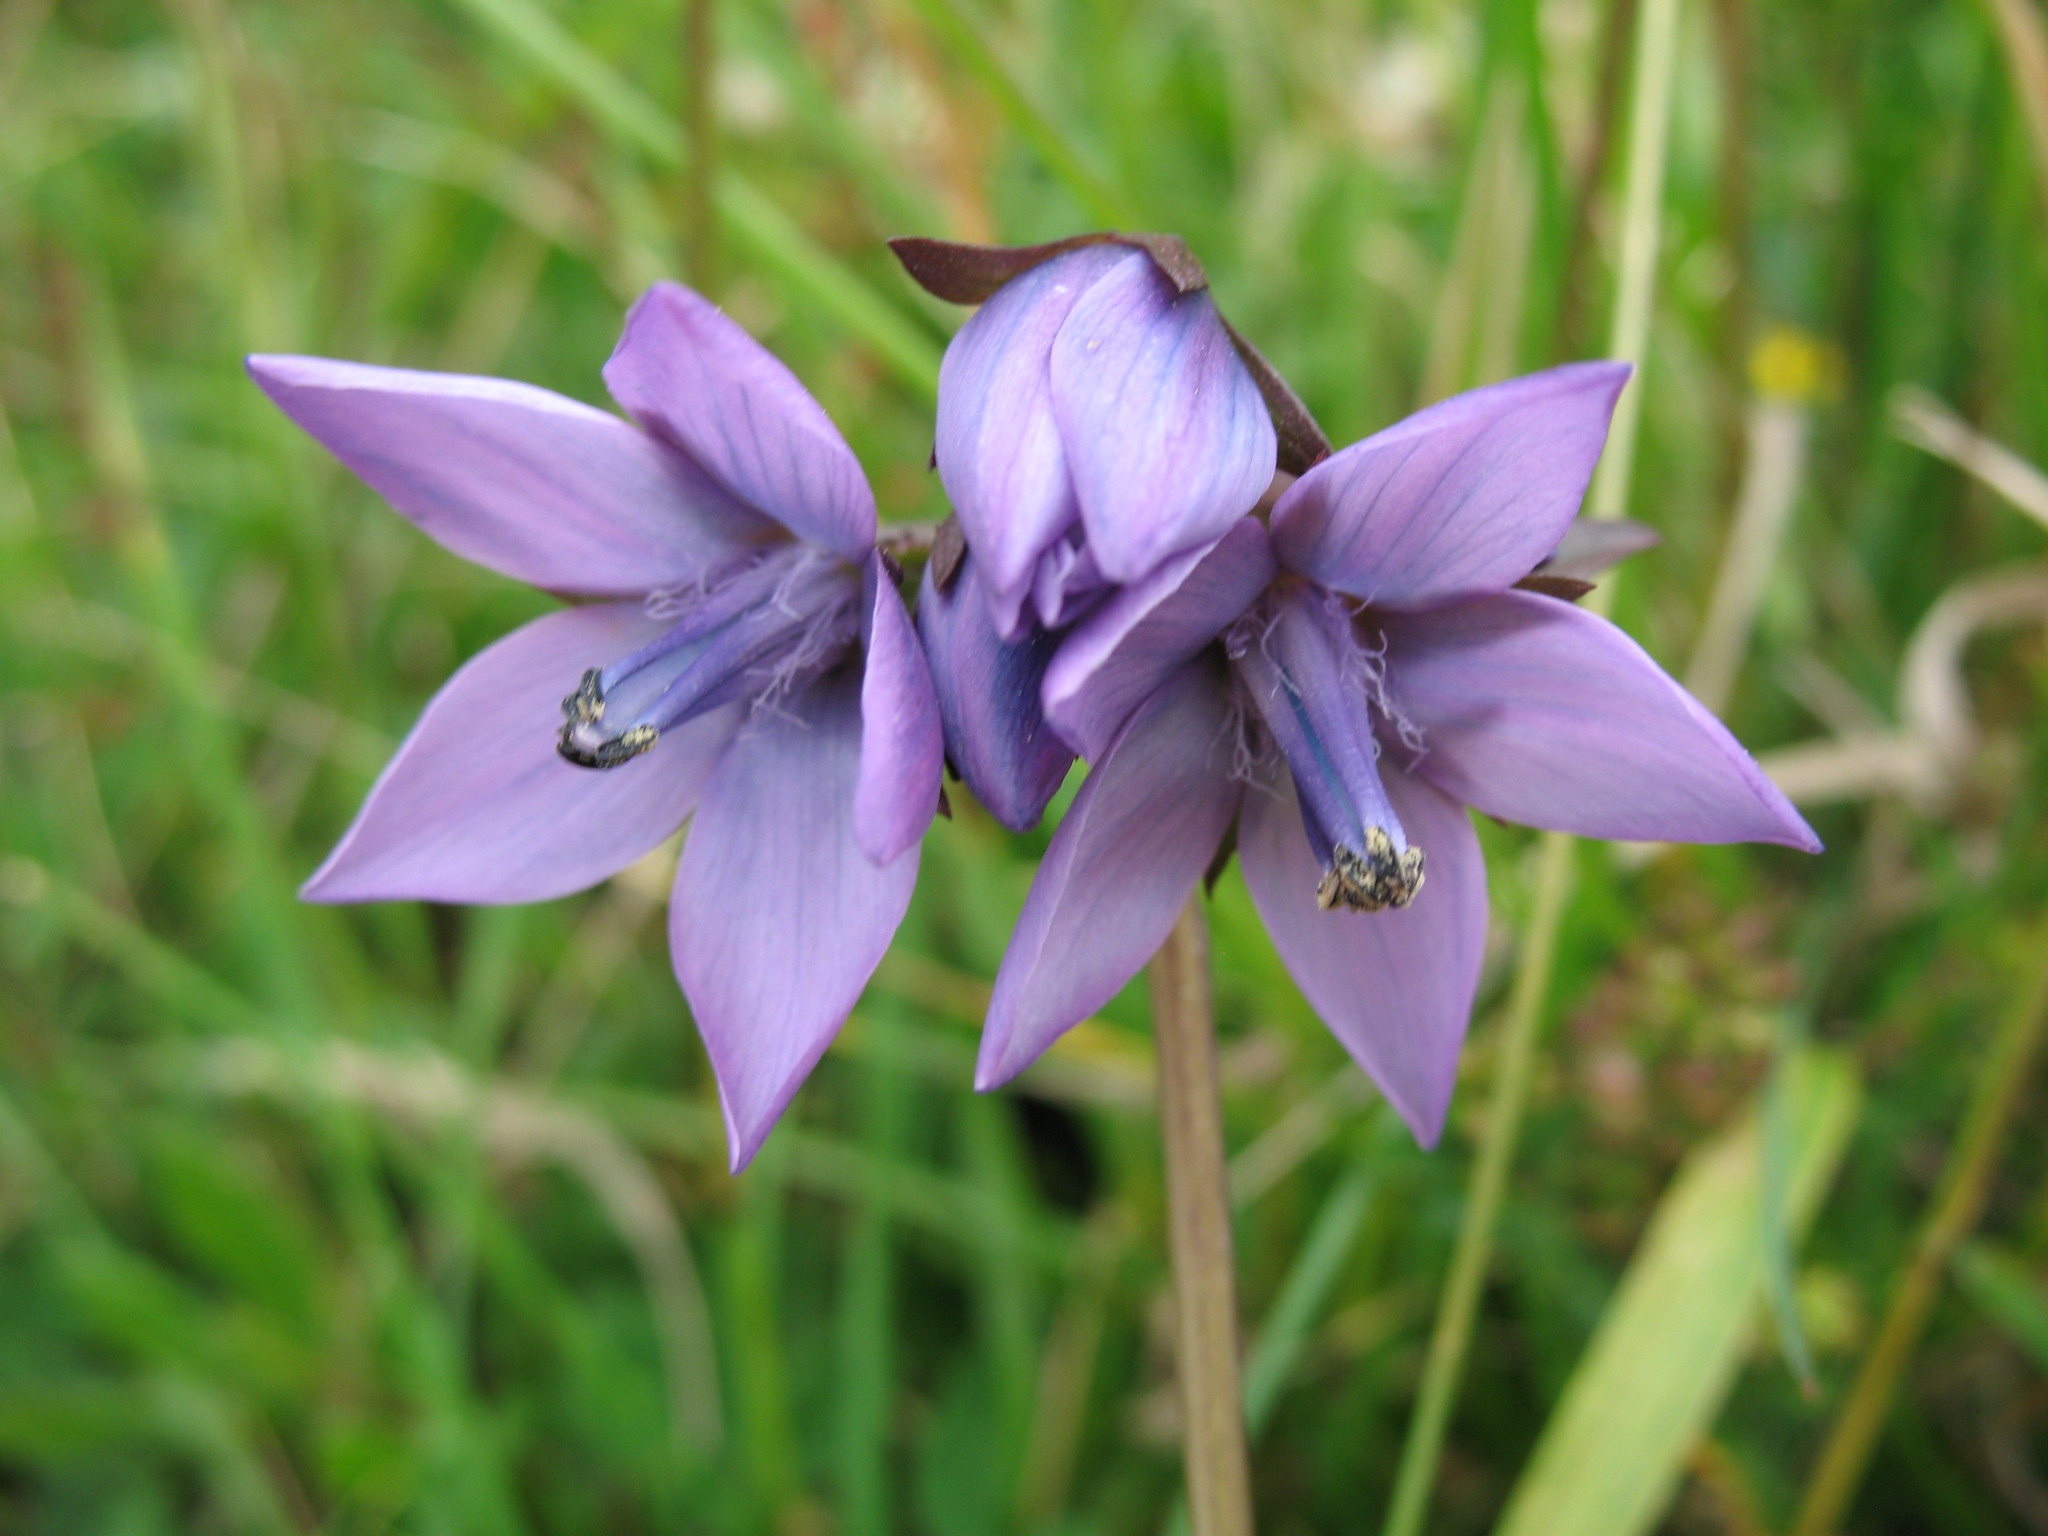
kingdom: Plantae
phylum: Tracheophyta
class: Magnoliopsida
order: Gentianales
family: Gentianaceae
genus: Gentianella
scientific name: Gentianella rapunculoides
